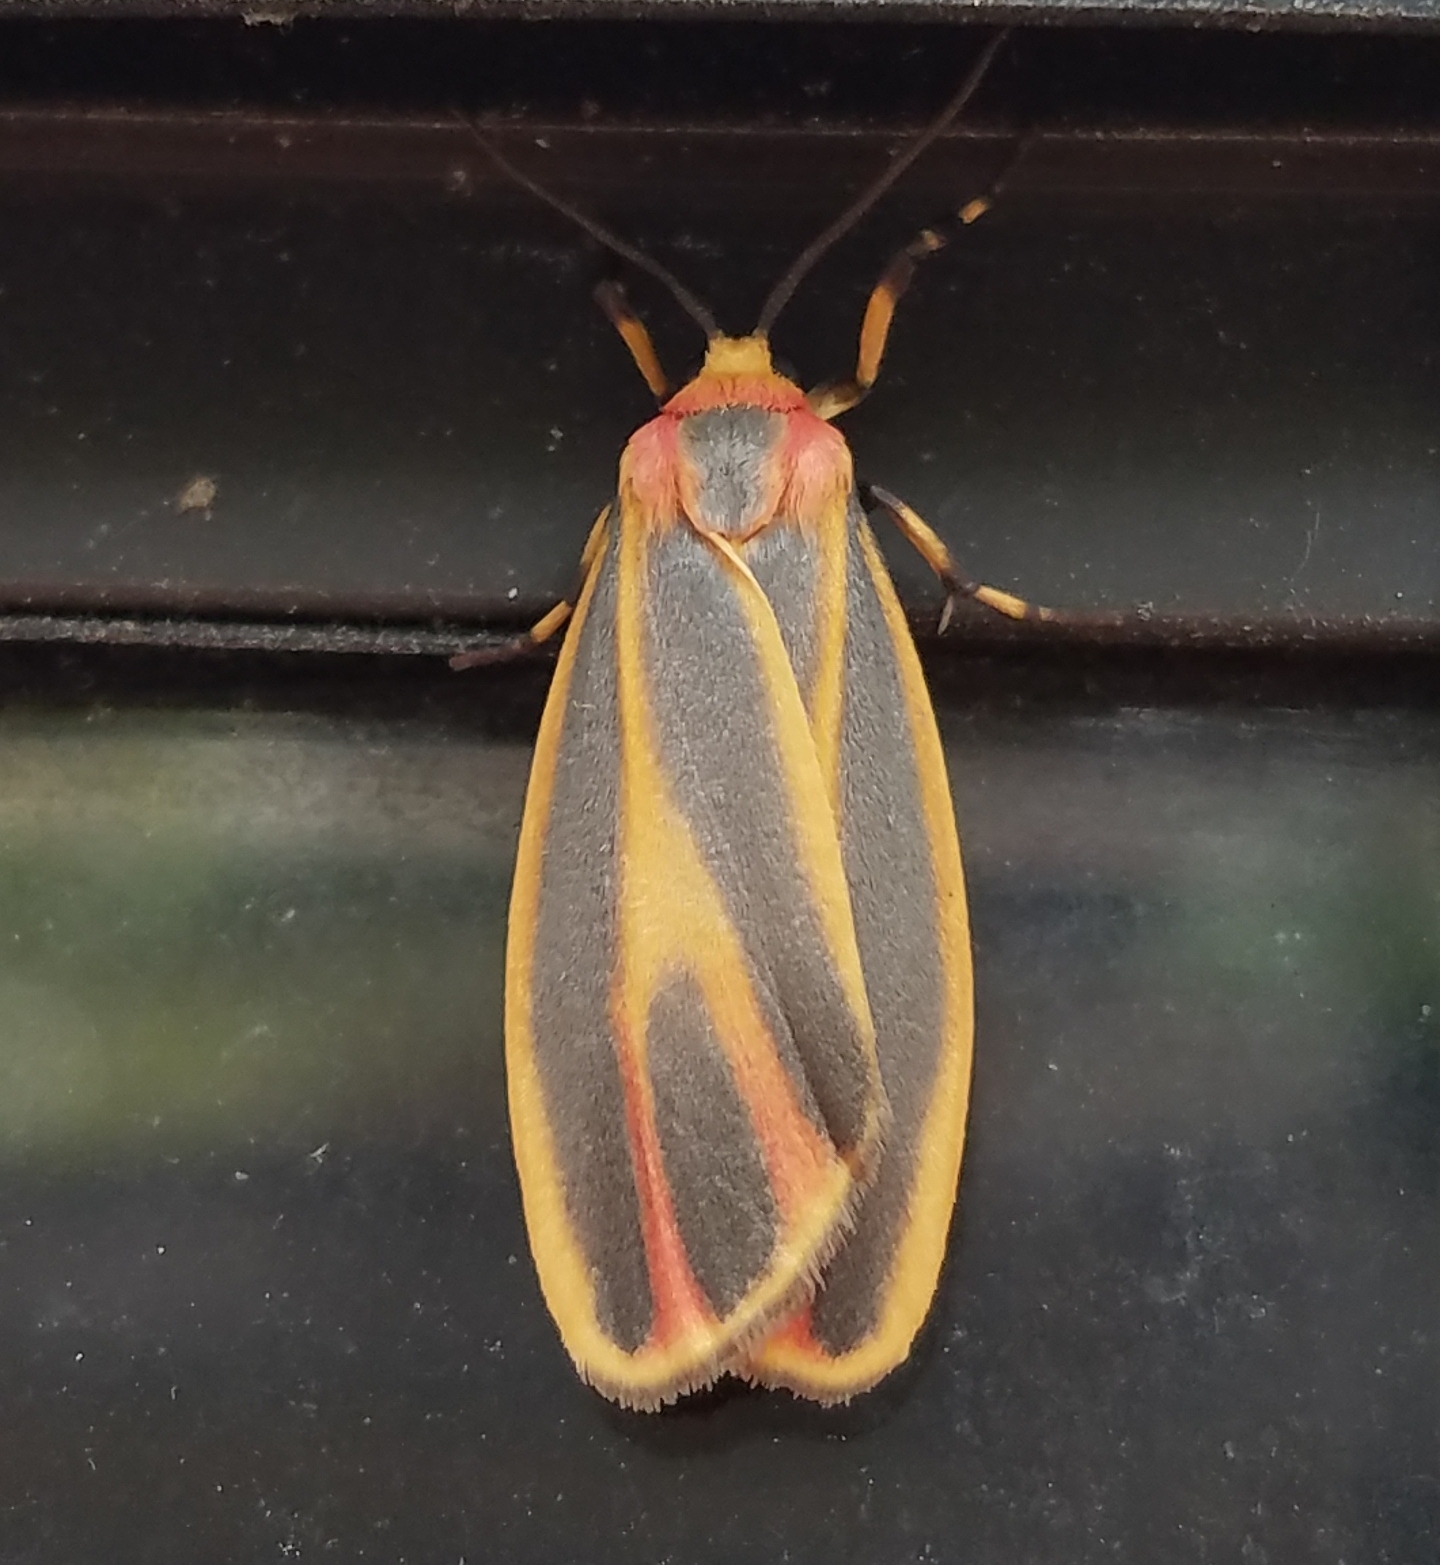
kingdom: Animalia
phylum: Arthropoda
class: Insecta
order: Lepidoptera
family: Erebidae
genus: Hypoprepia
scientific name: Hypoprepia fucosa
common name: Painted lichen moth
